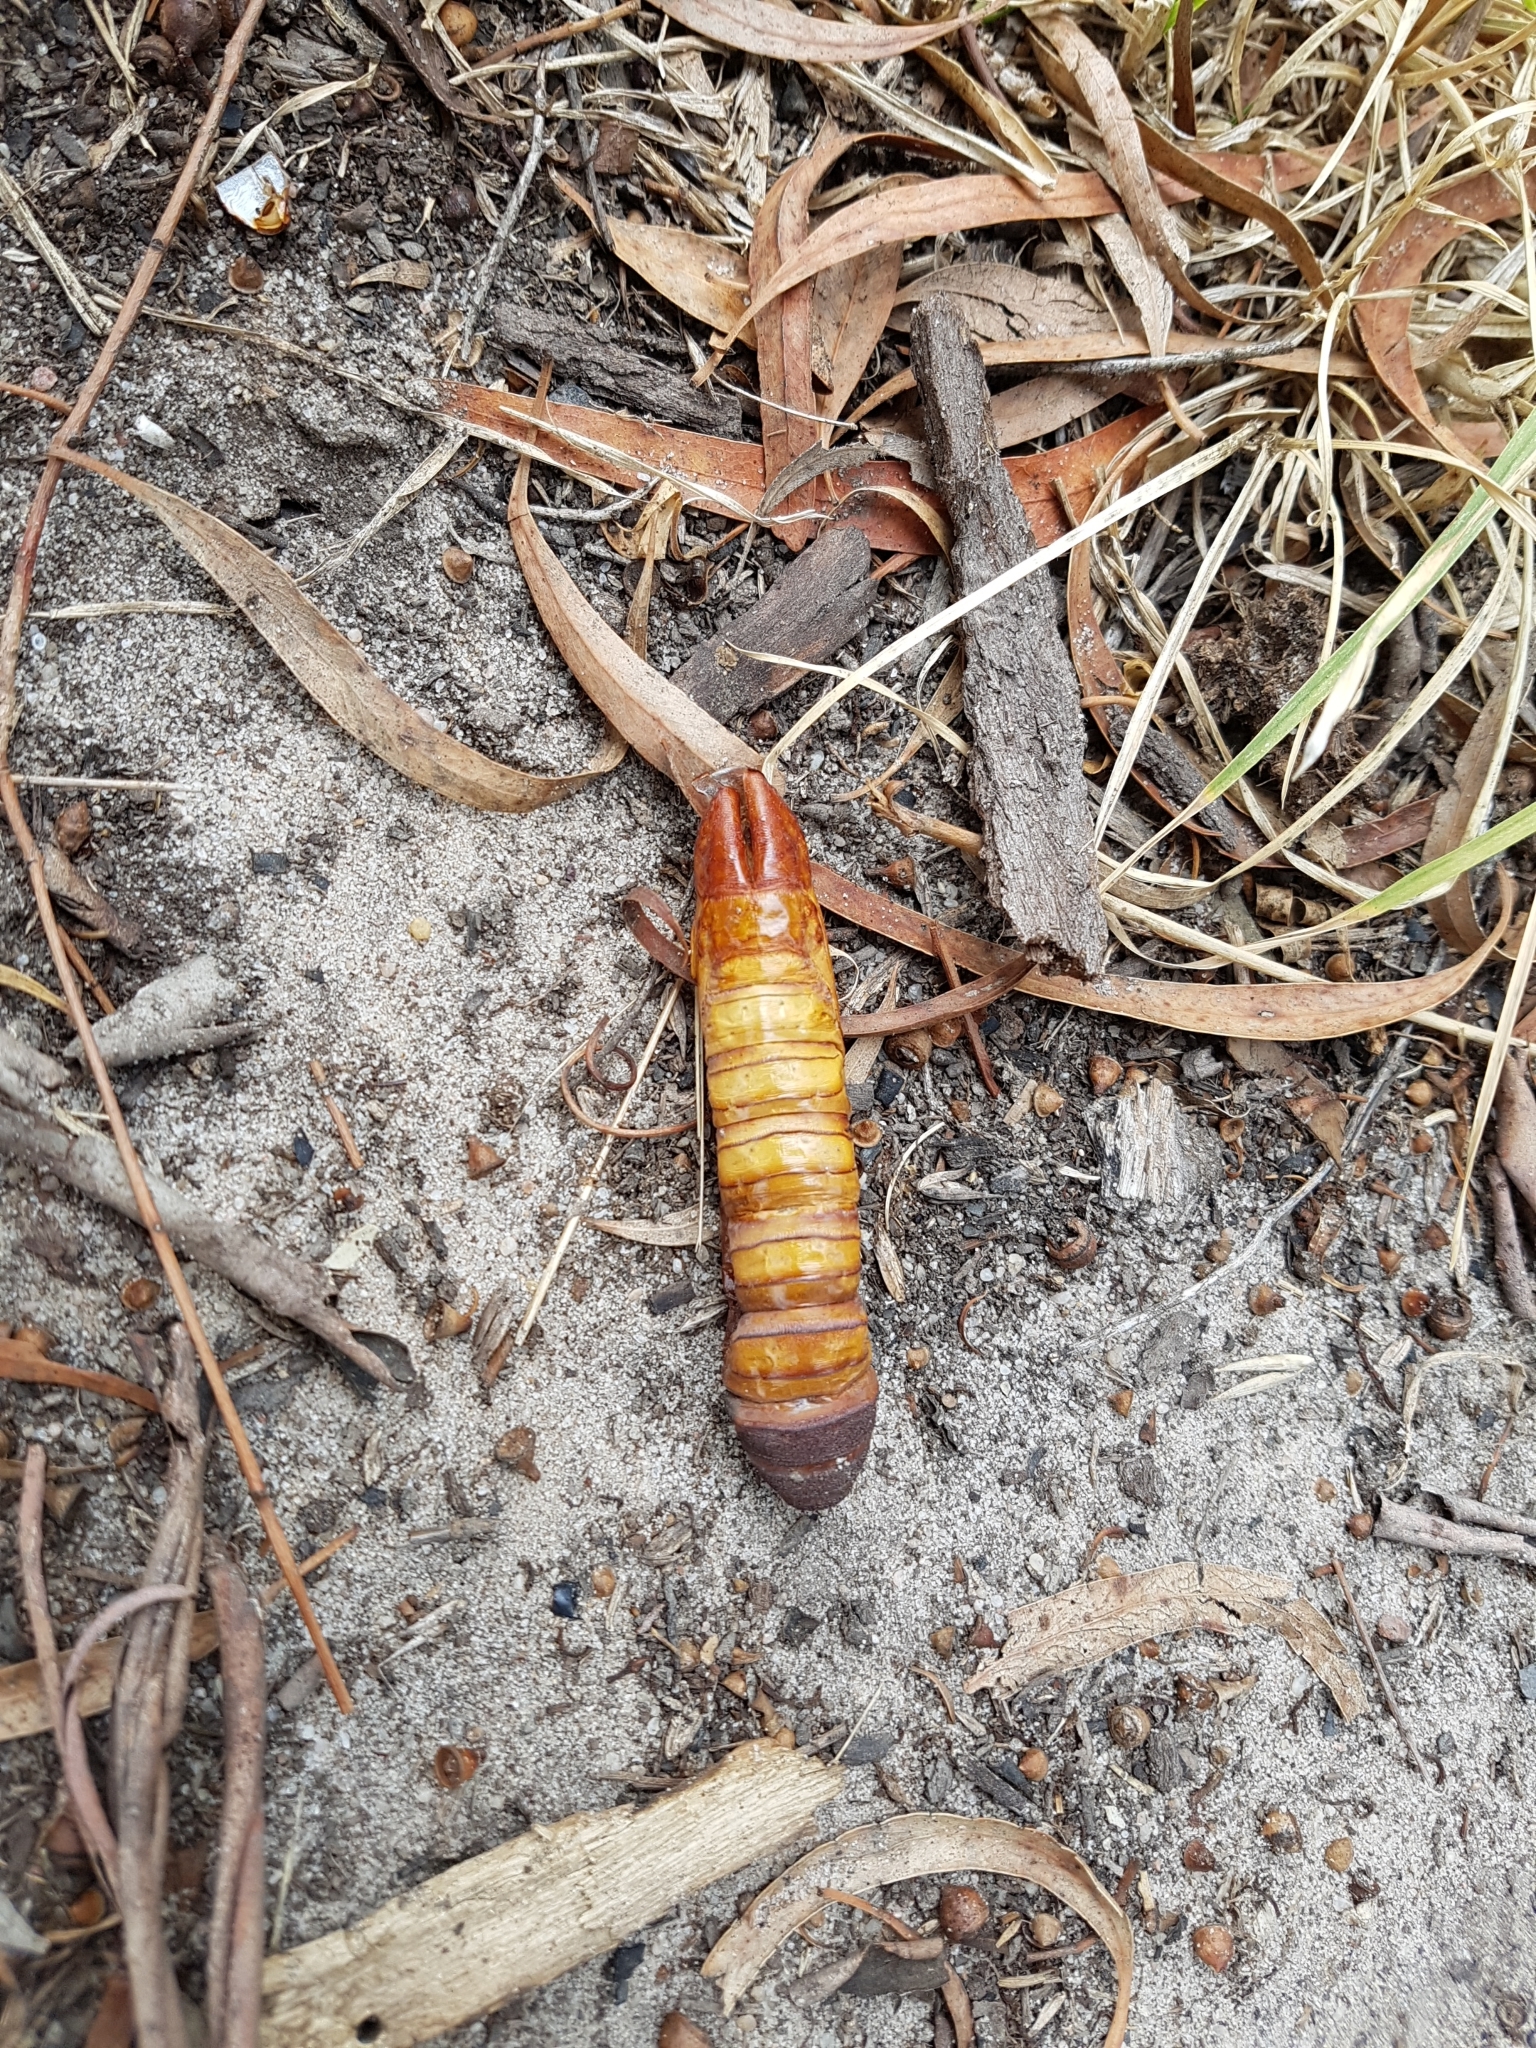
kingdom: Animalia
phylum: Arthropoda
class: Insecta
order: Lepidoptera
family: Hepialidae
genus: Abantiades
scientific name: Abantiades atripalpis
